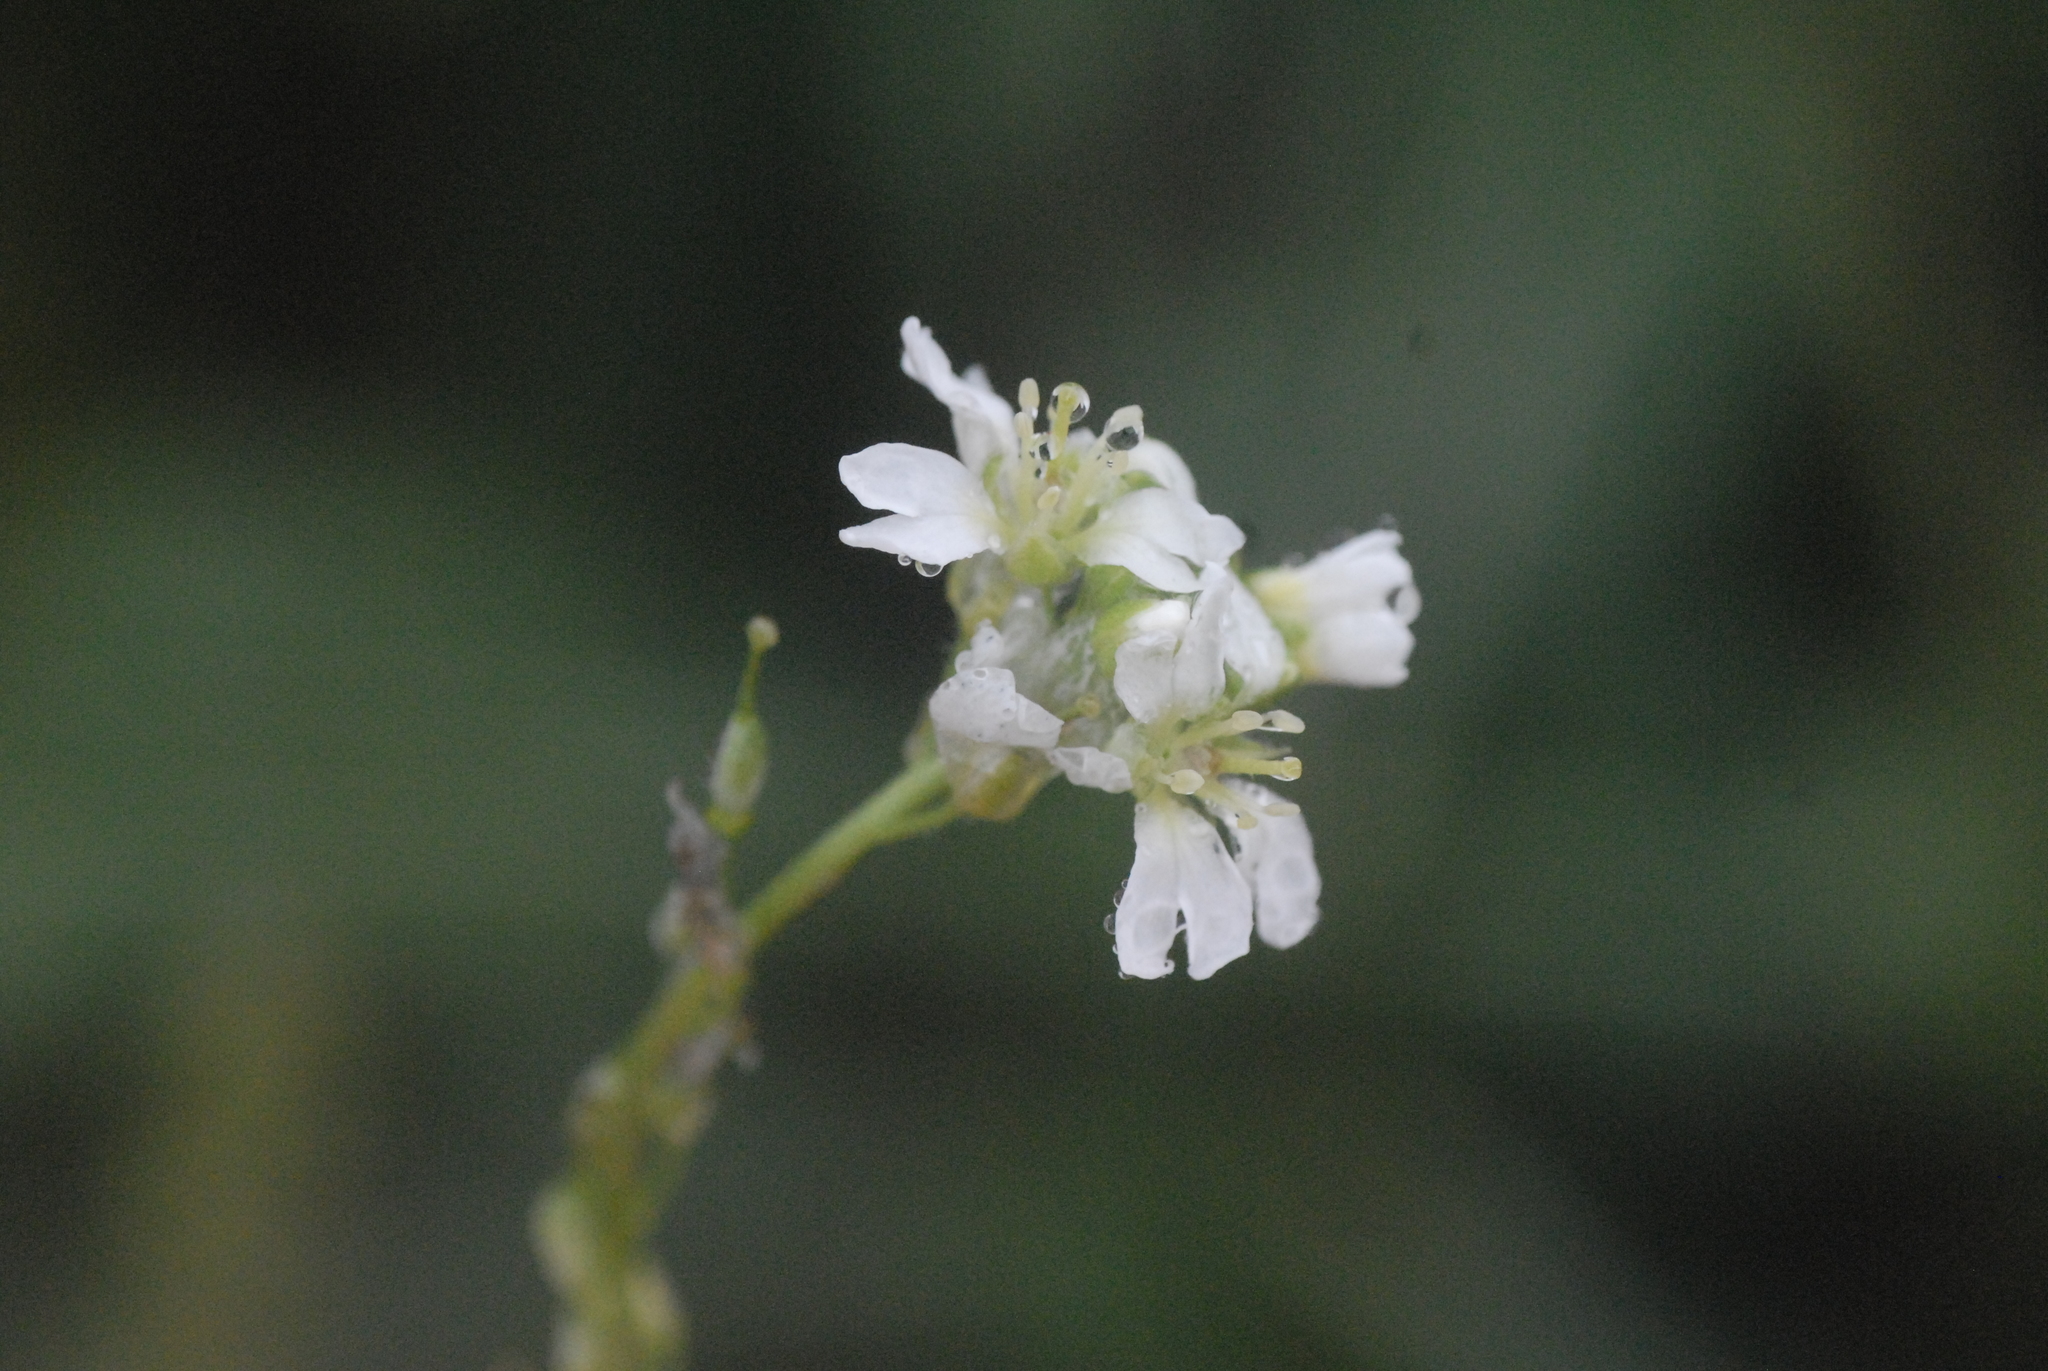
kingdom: Plantae
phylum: Tracheophyta
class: Magnoliopsida
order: Brassicales
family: Brassicaceae
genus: Berteroa
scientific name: Berteroa incana
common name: Hoary alison
